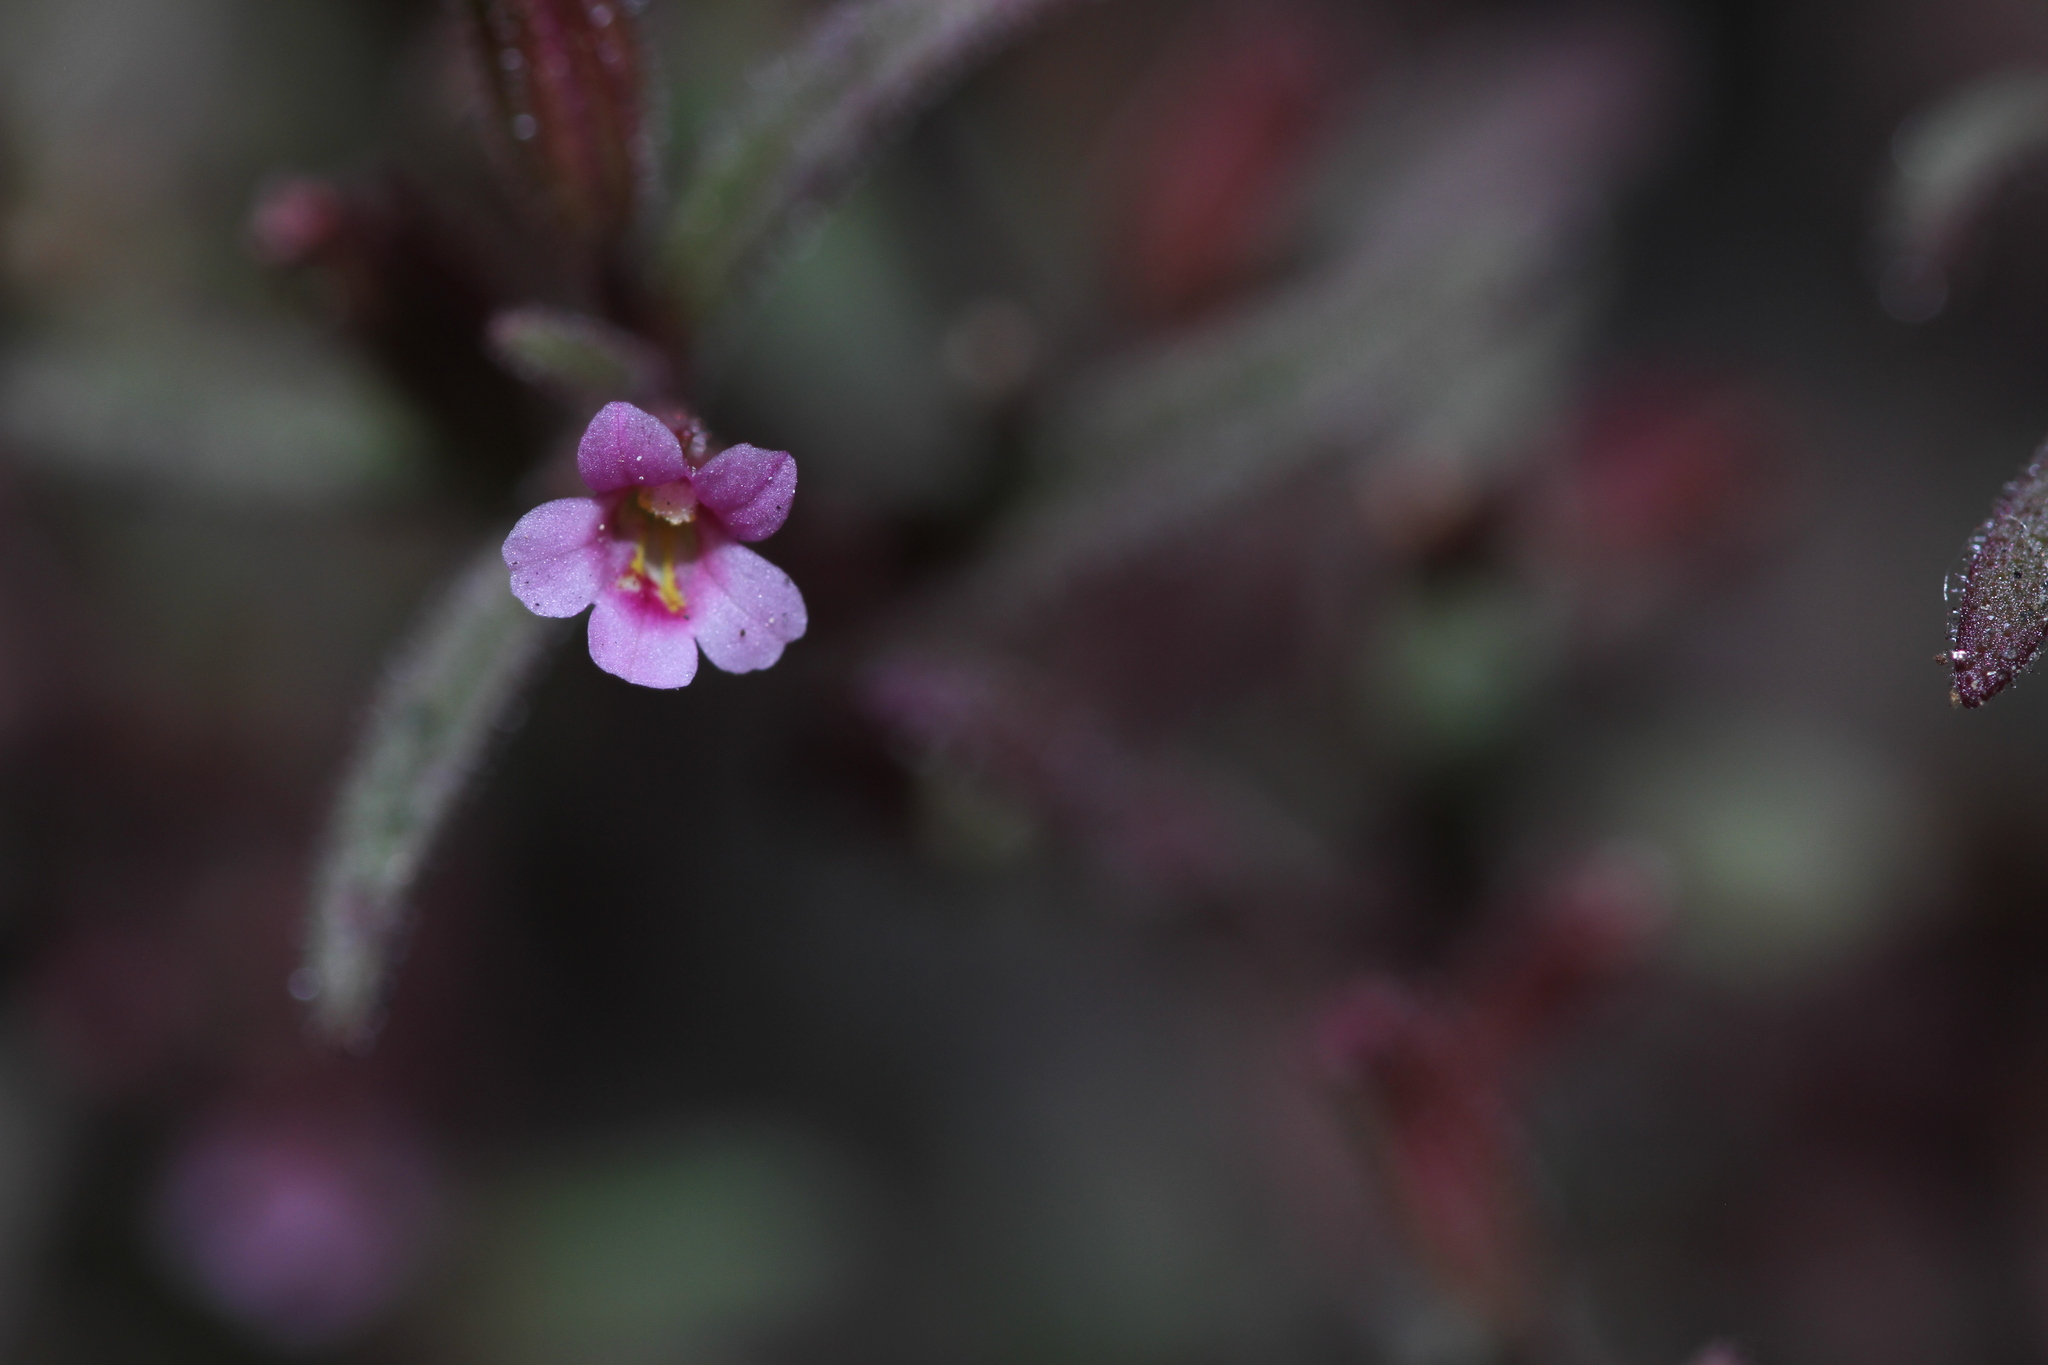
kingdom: Plantae
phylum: Tracheophyta
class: Magnoliopsida
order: Lamiales
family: Phrymaceae
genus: Erythranthe
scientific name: Erythranthe breweri
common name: Brewer's monkeyflower
